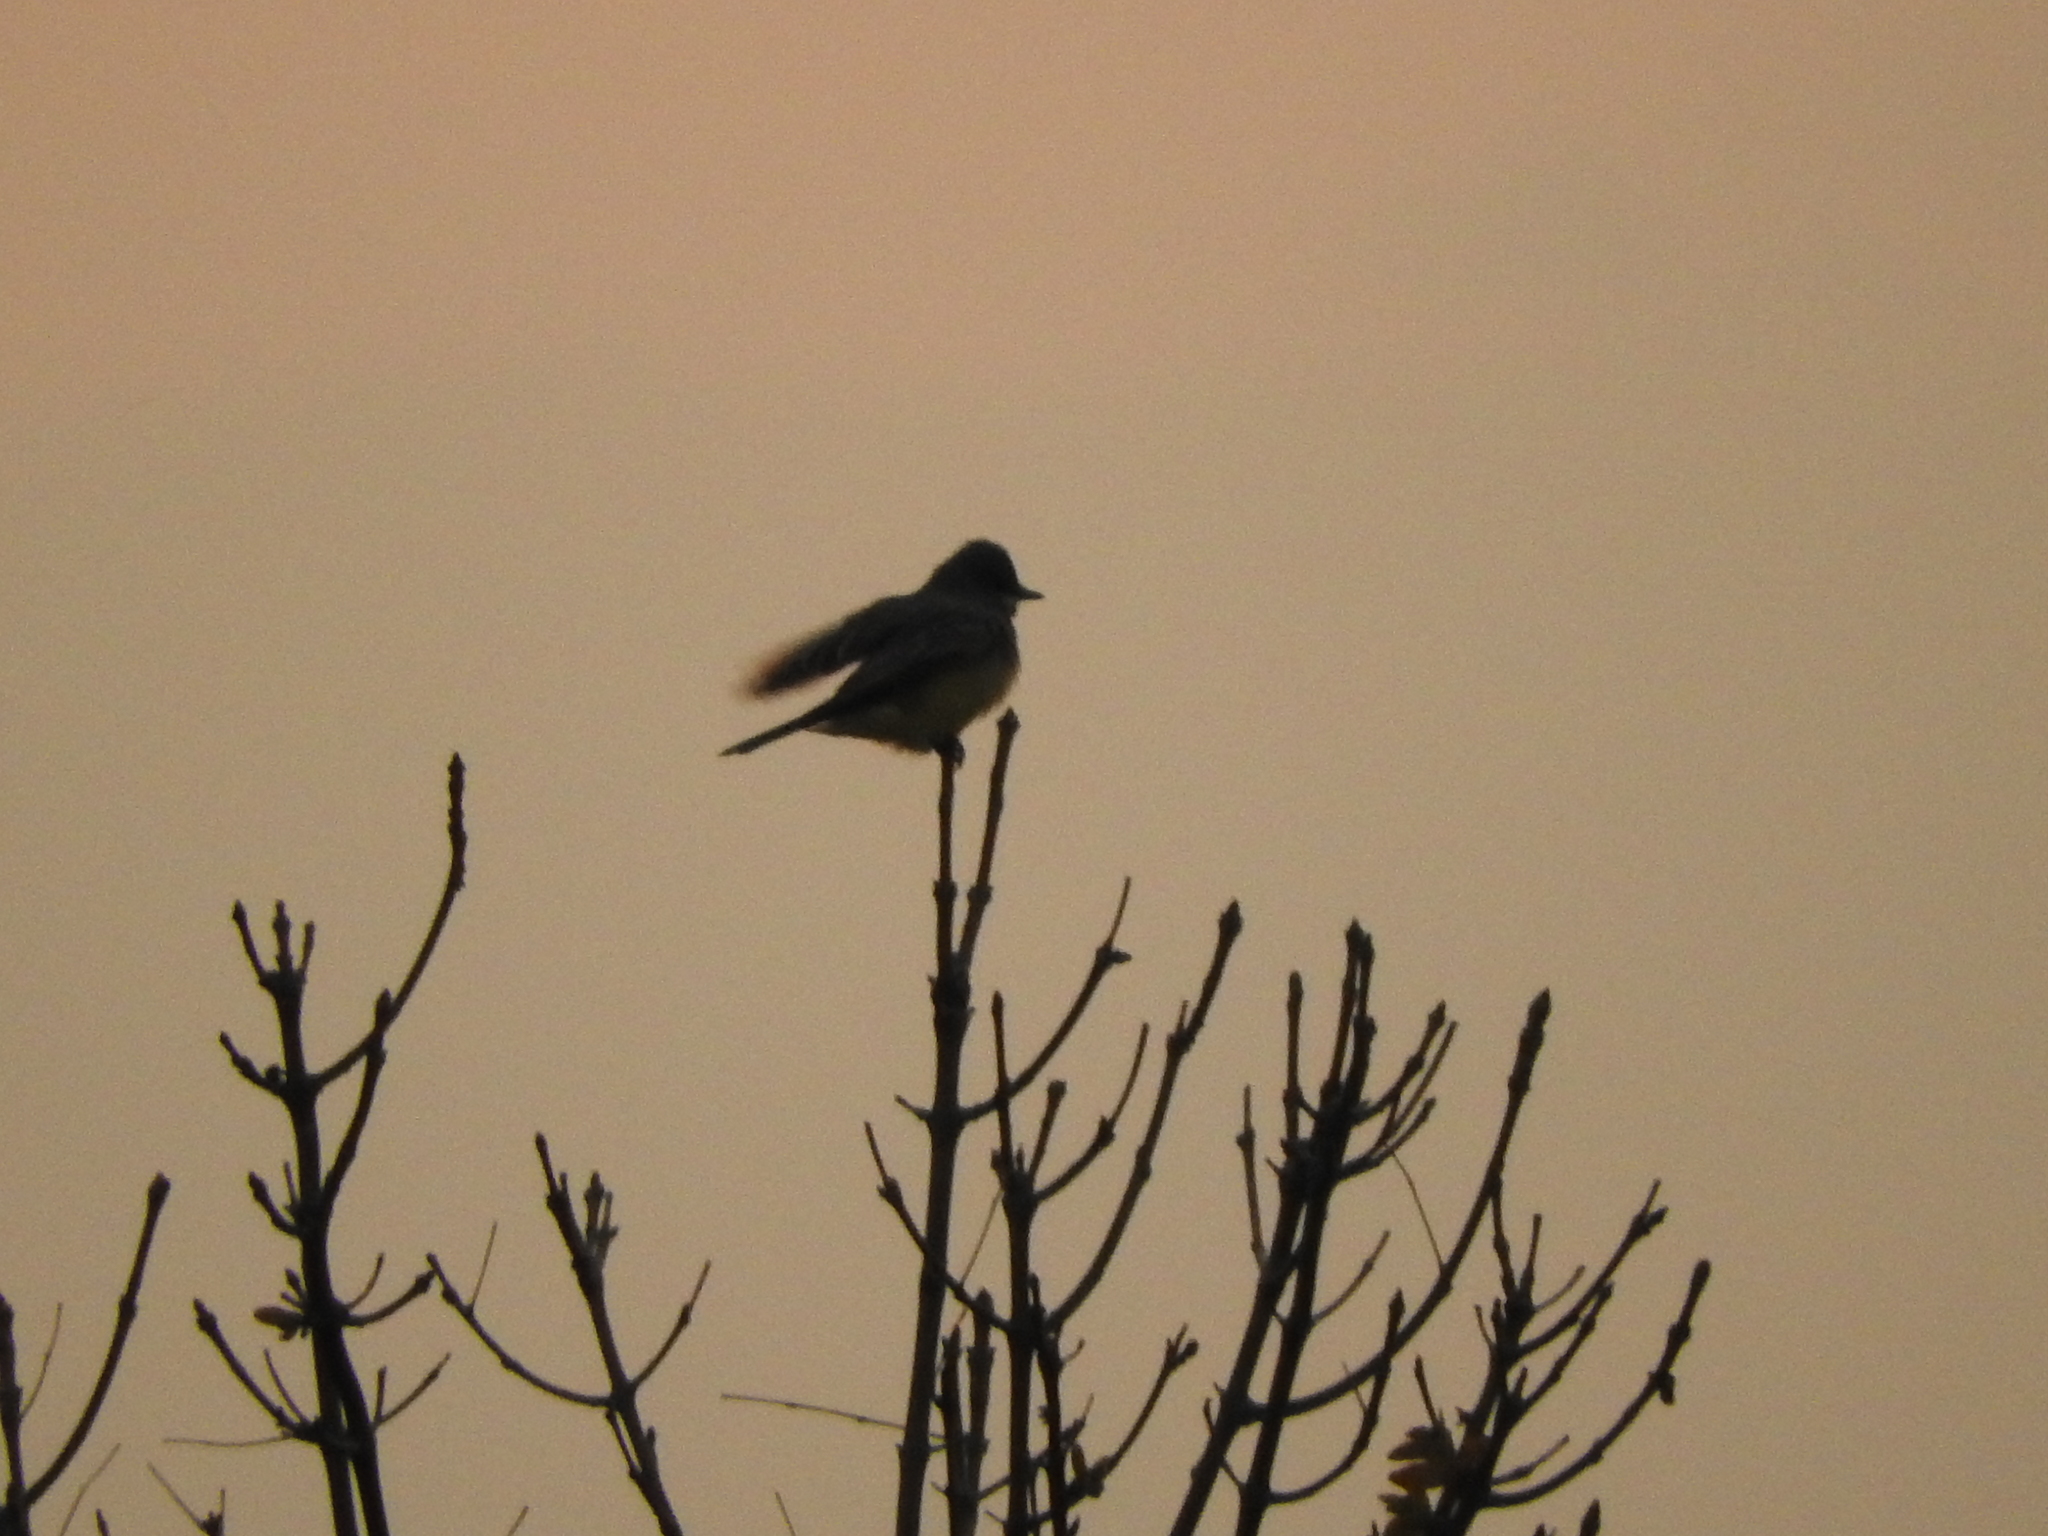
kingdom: Animalia
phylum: Chordata
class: Aves
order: Passeriformes
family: Tyrannidae
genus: Tyrannus
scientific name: Tyrannus vociferans
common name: Cassin's kingbird
